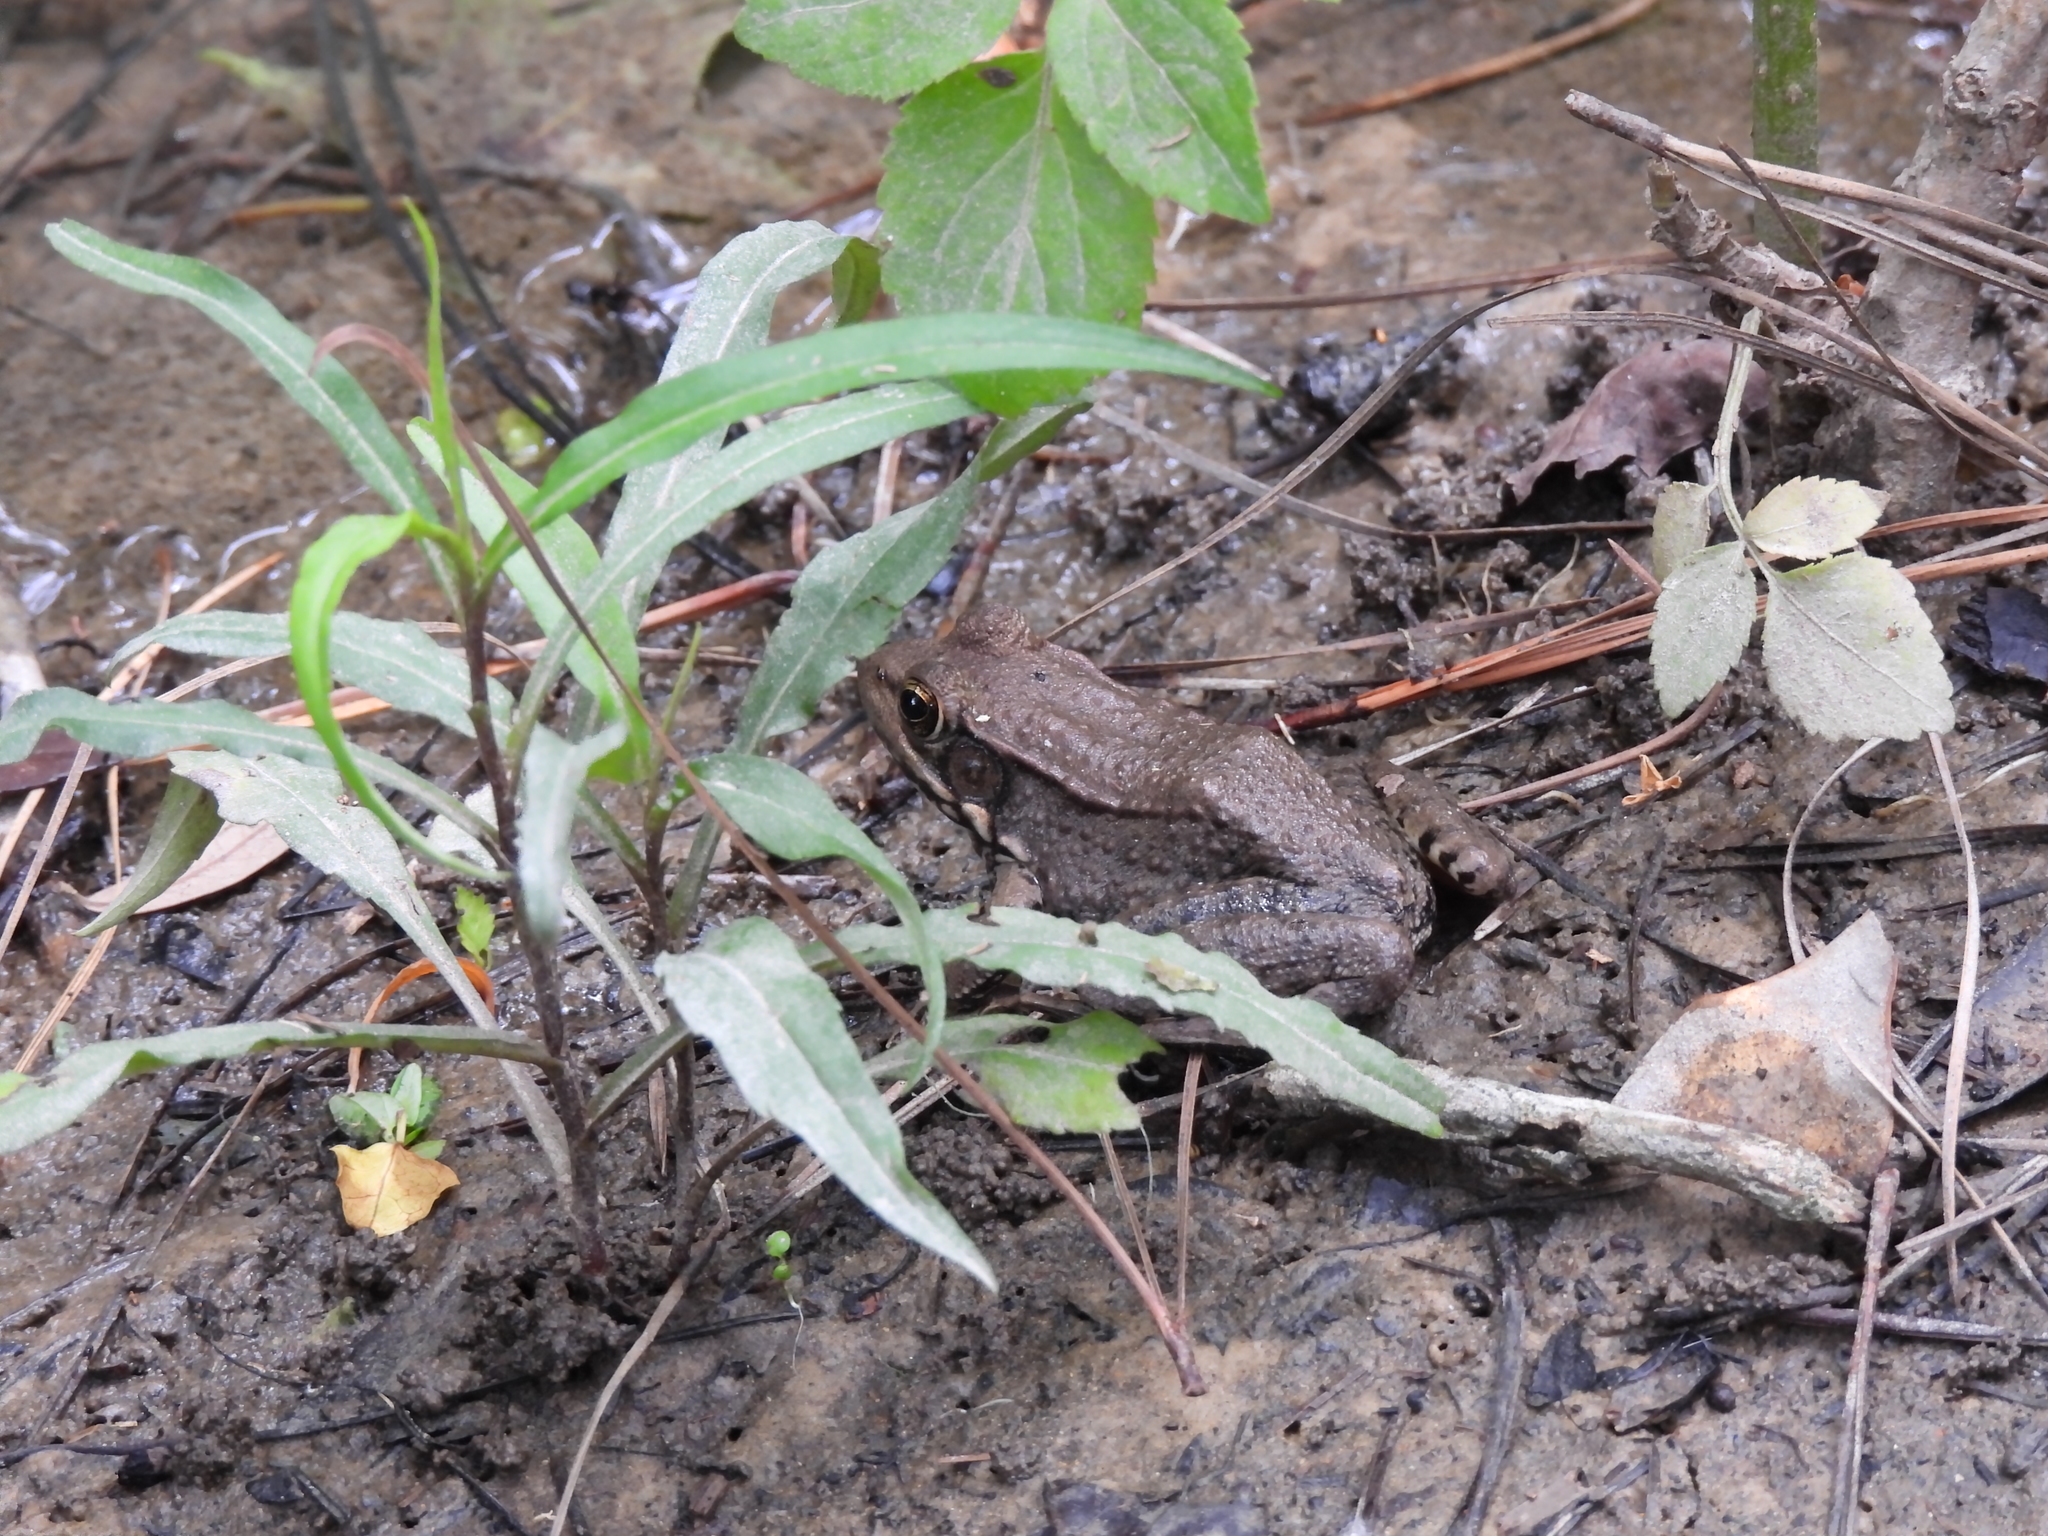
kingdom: Animalia
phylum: Chordata
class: Amphibia
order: Anura
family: Ranidae
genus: Lithobates
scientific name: Lithobates clamitans
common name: Green frog
